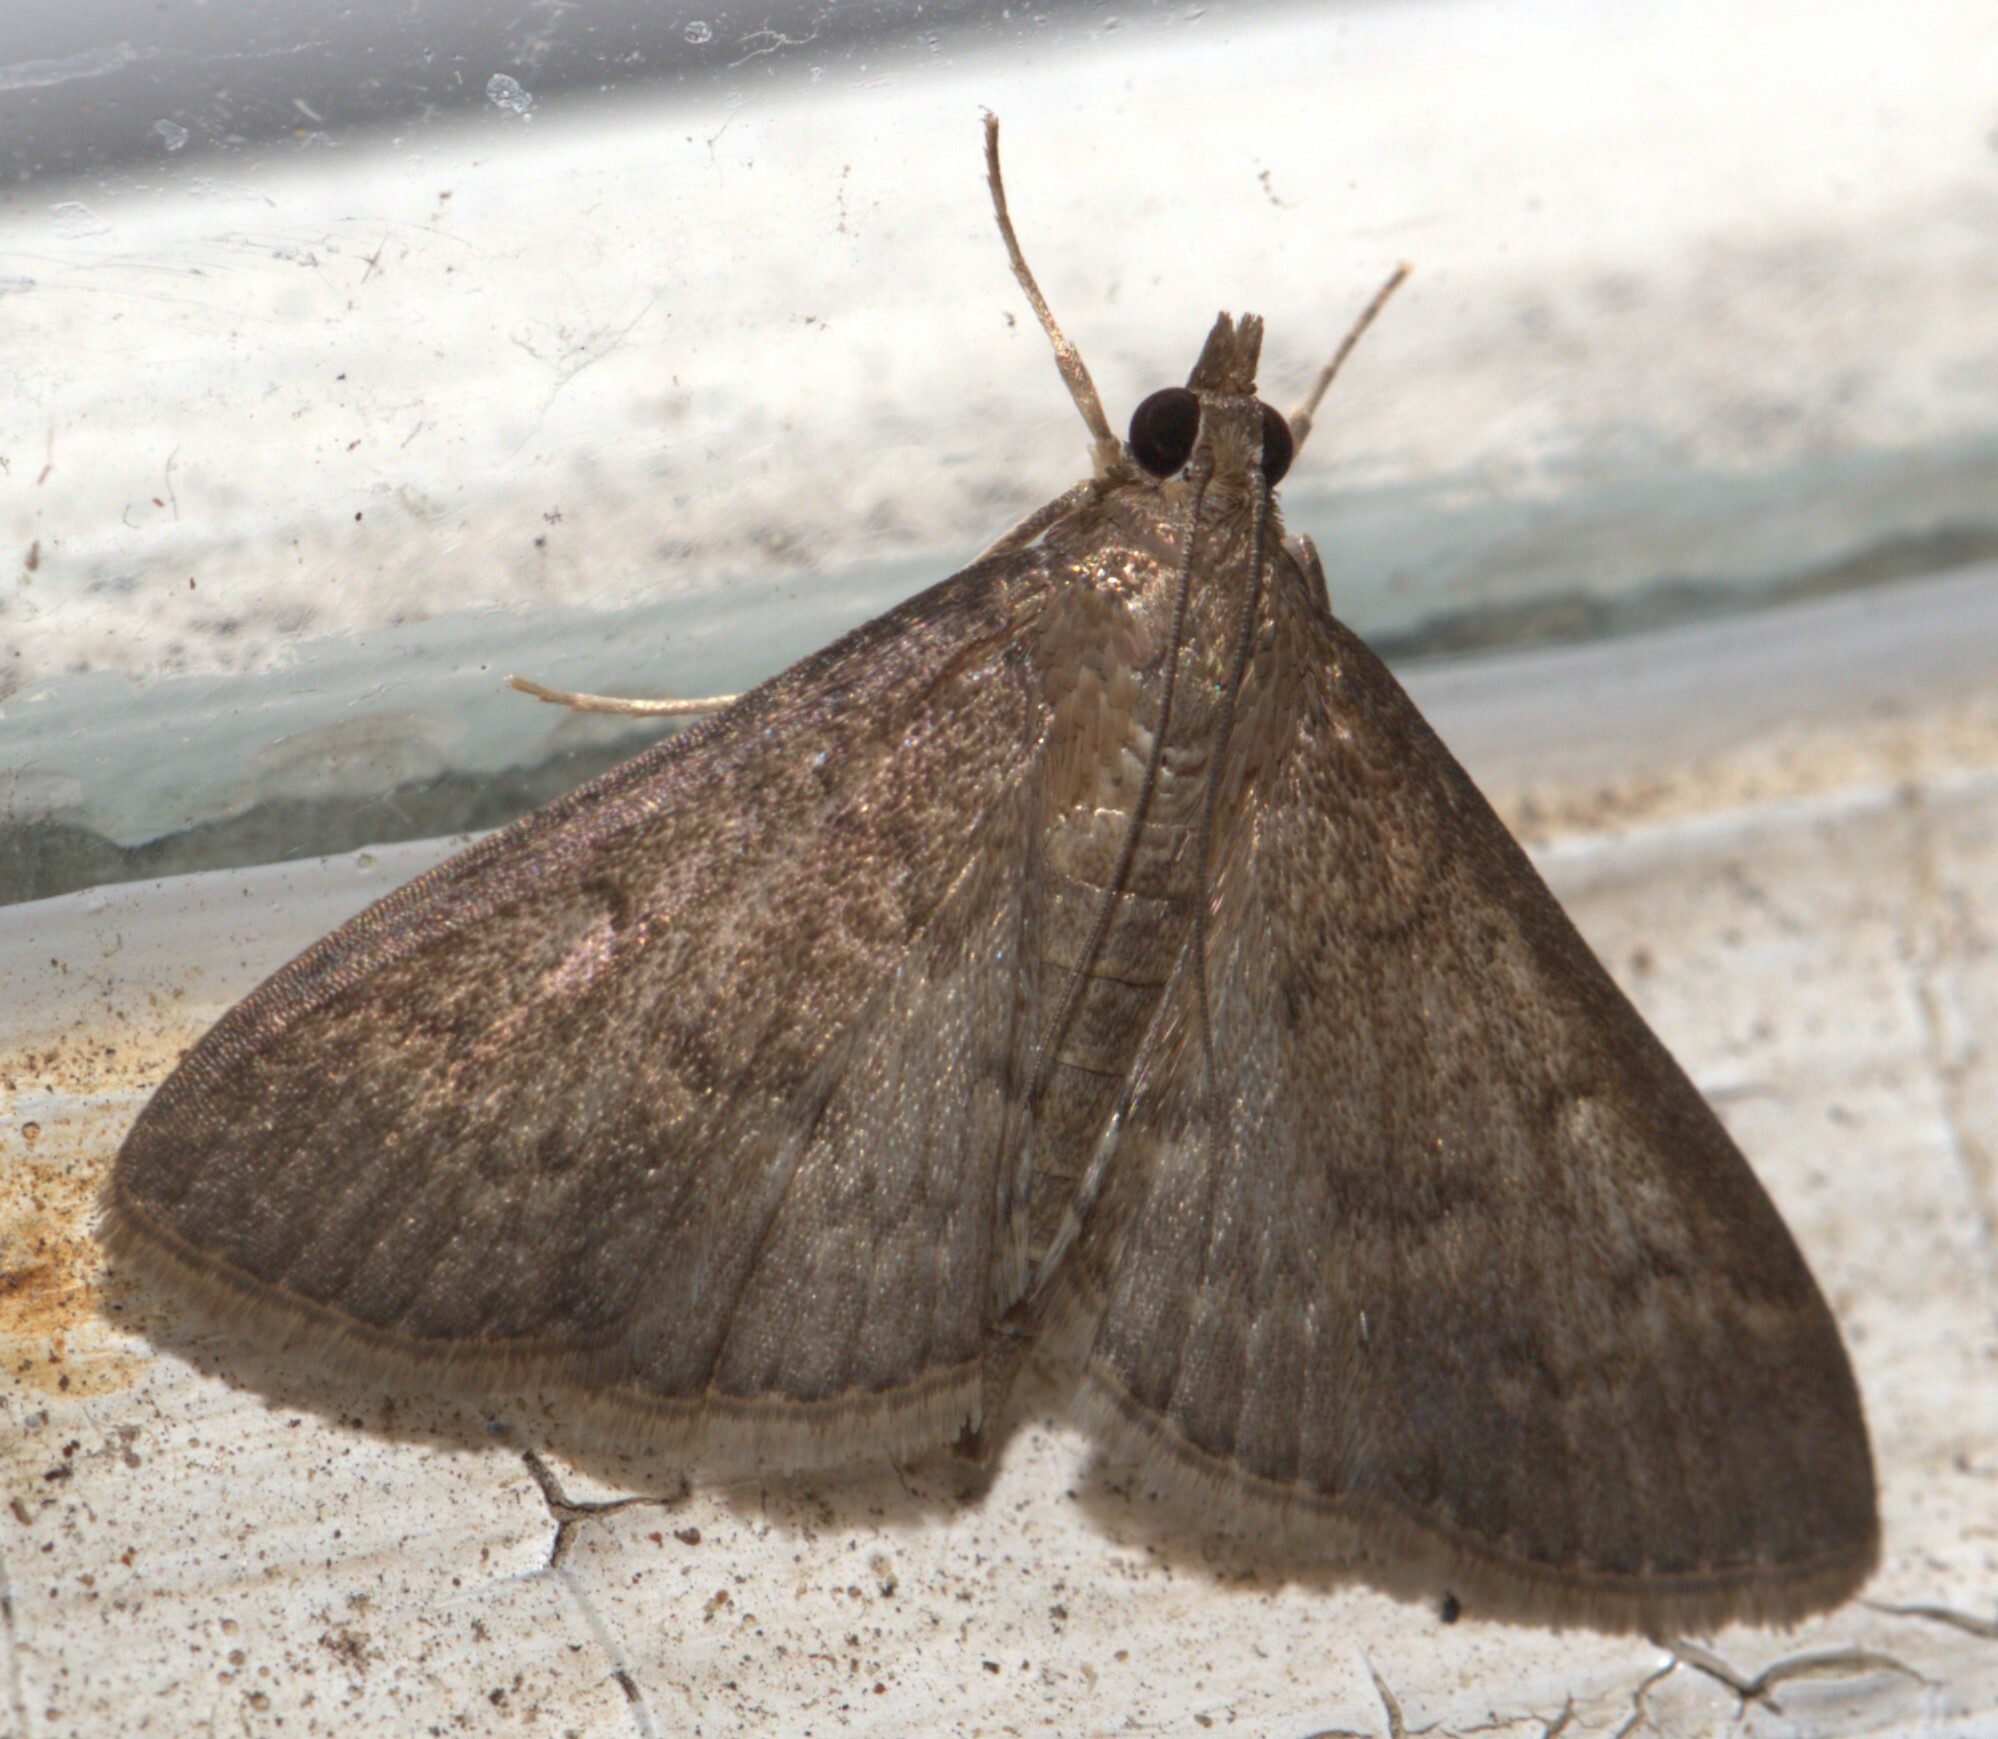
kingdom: Animalia
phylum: Arthropoda
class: Insecta
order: Lepidoptera
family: Crambidae
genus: Herpetogramma
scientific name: Herpetogramma licarsisalis
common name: Grass webworm
